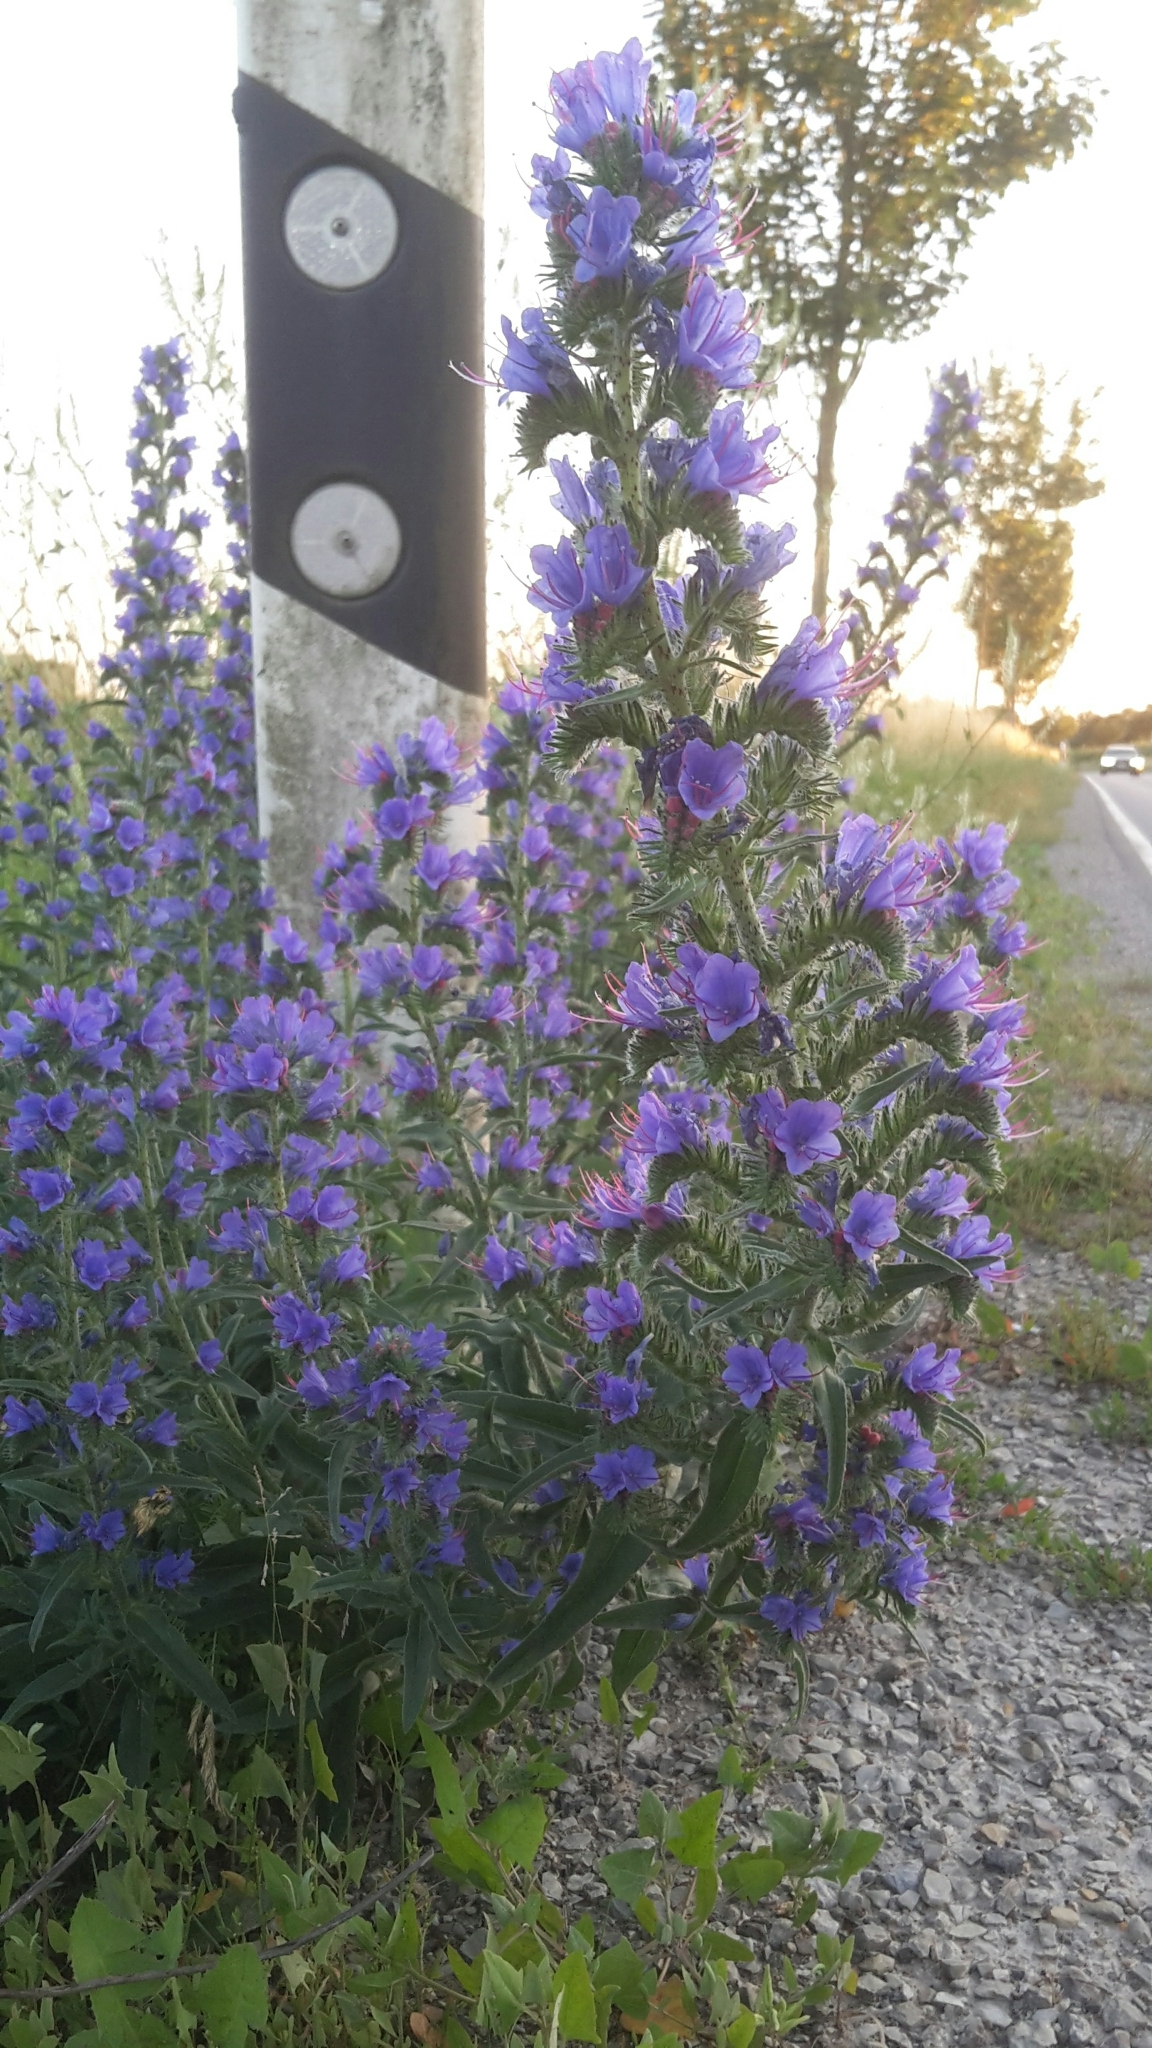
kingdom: Plantae
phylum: Tracheophyta
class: Magnoliopsida
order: Boraginales
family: Boraginaceae
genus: Echium
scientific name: Echium vulgare
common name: Common viper's bugloss
